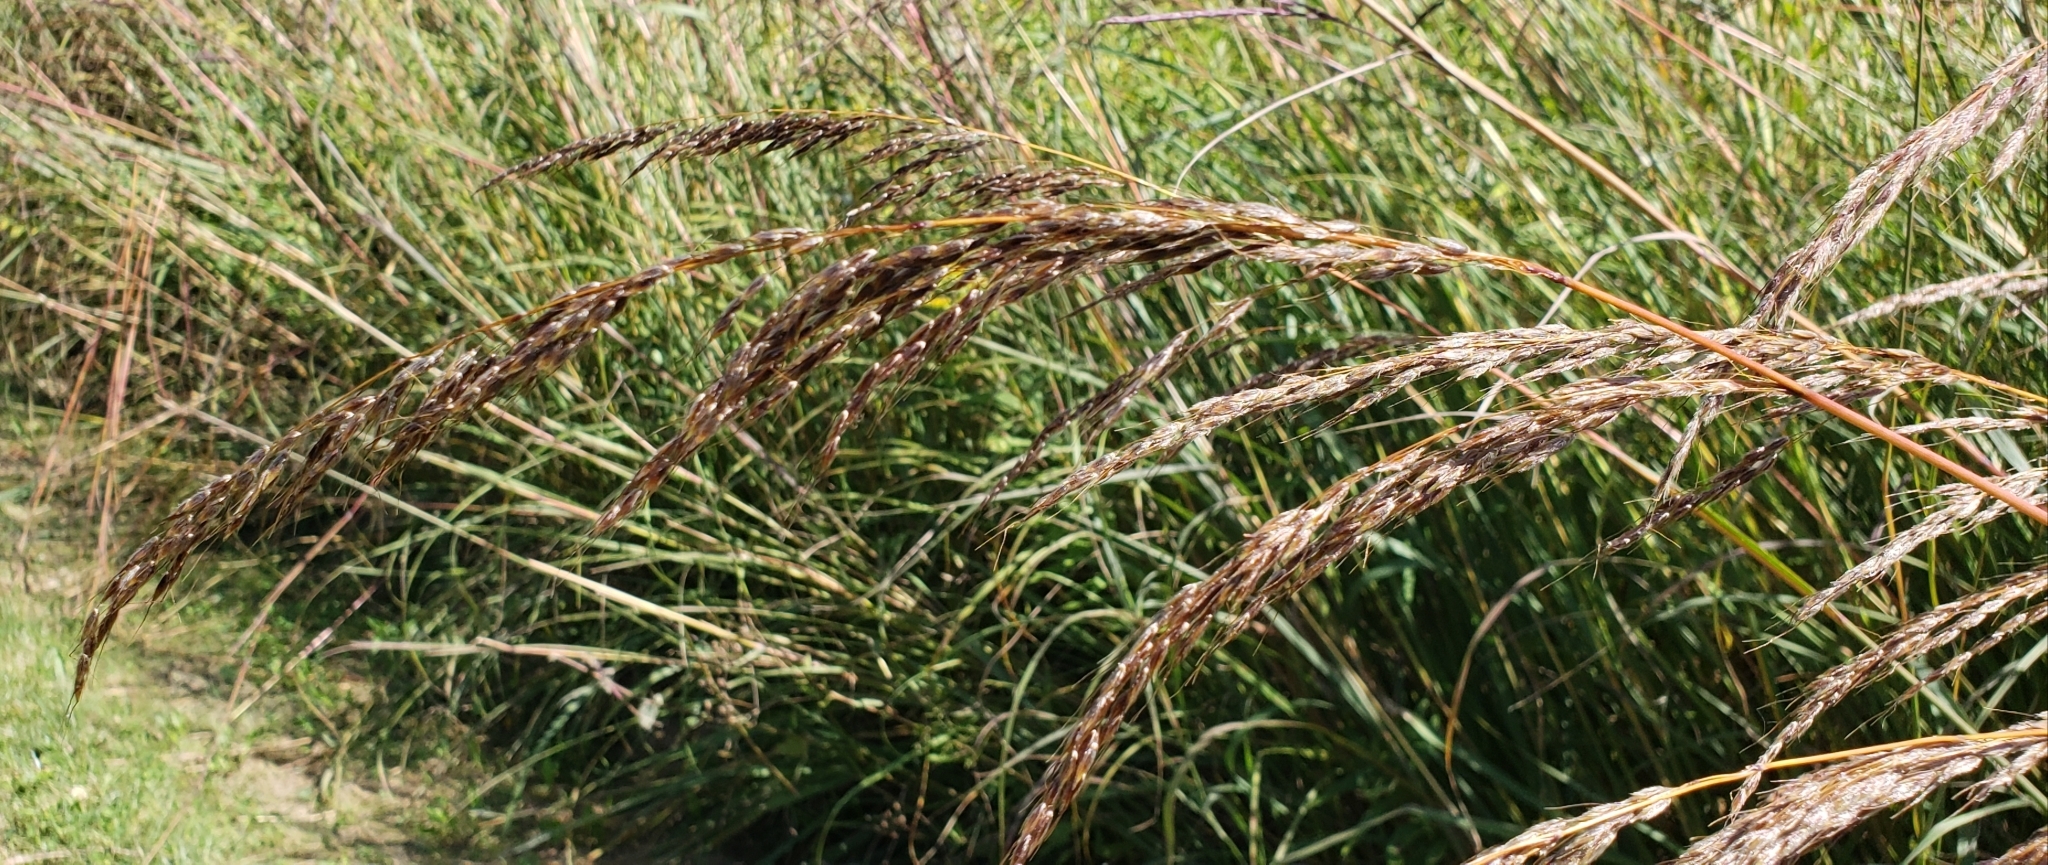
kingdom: Plantae
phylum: Tracheophyta
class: Liliopsida
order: Poales
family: Poaceae
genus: Sorghastrum
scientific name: Sorghastrum nutans
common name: Indian grass
